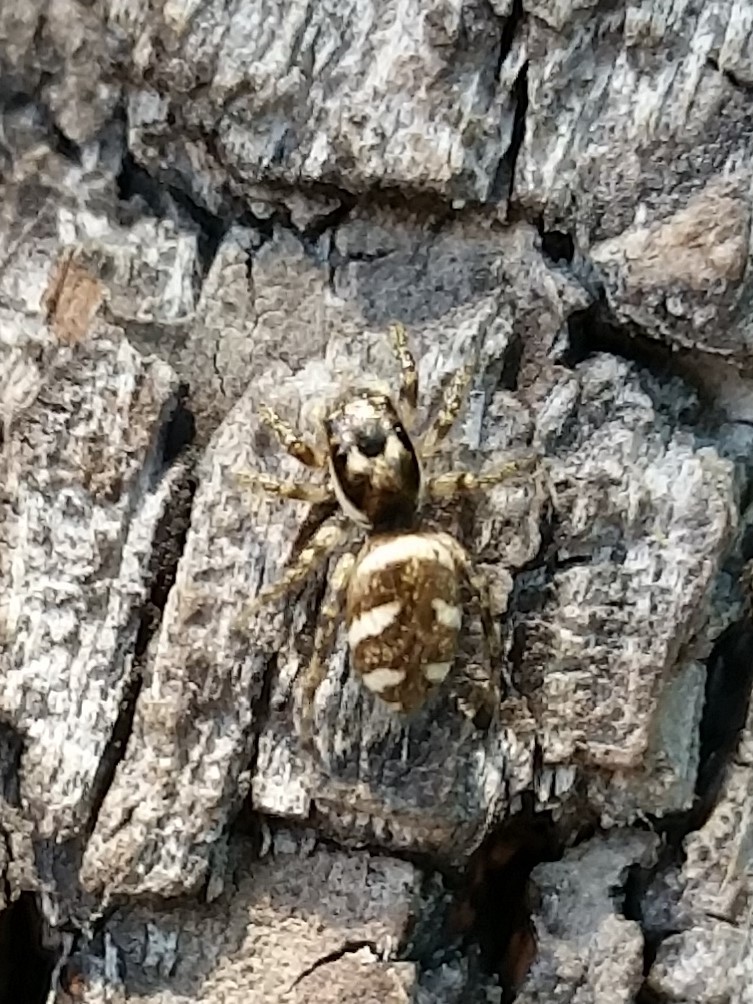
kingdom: Animalia
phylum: Arthropoda
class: Arachnida
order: Araneae
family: Salticidae
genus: Salticus
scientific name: Salticus scenicus
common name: Zebra jumper
